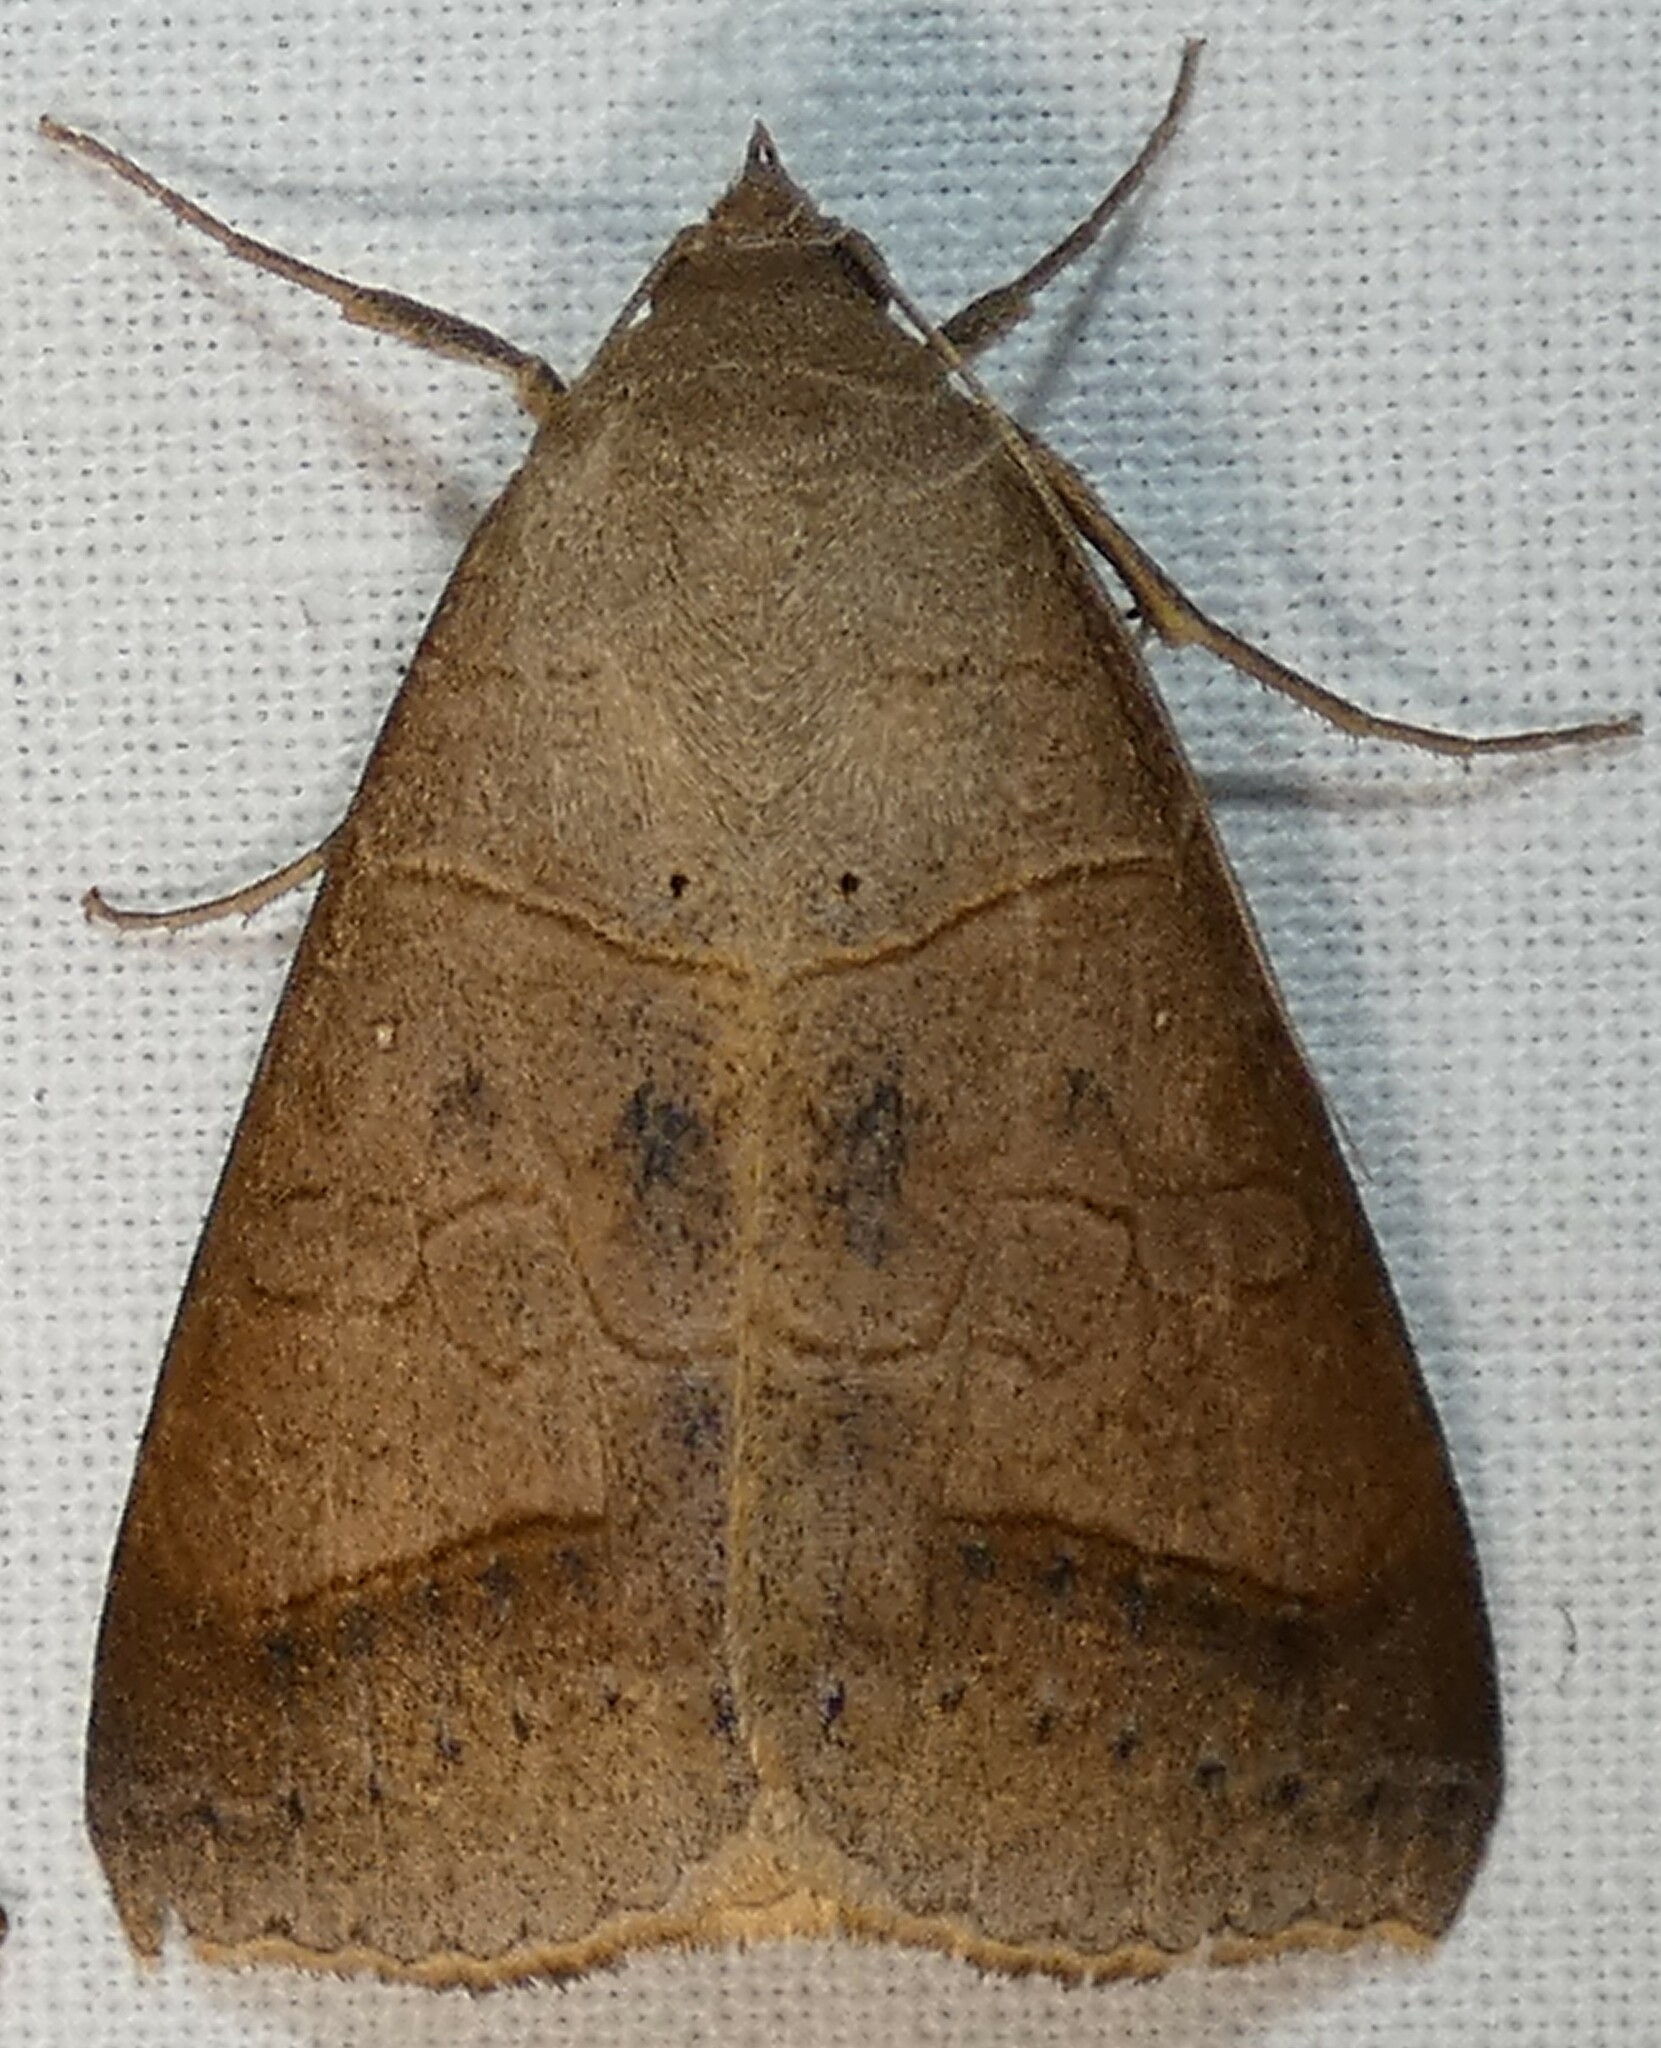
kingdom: Animalia
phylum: Arthropoda
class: Insecta
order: Lepidoptera
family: Erebidae
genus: Mocis
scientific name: Mocis marcida
